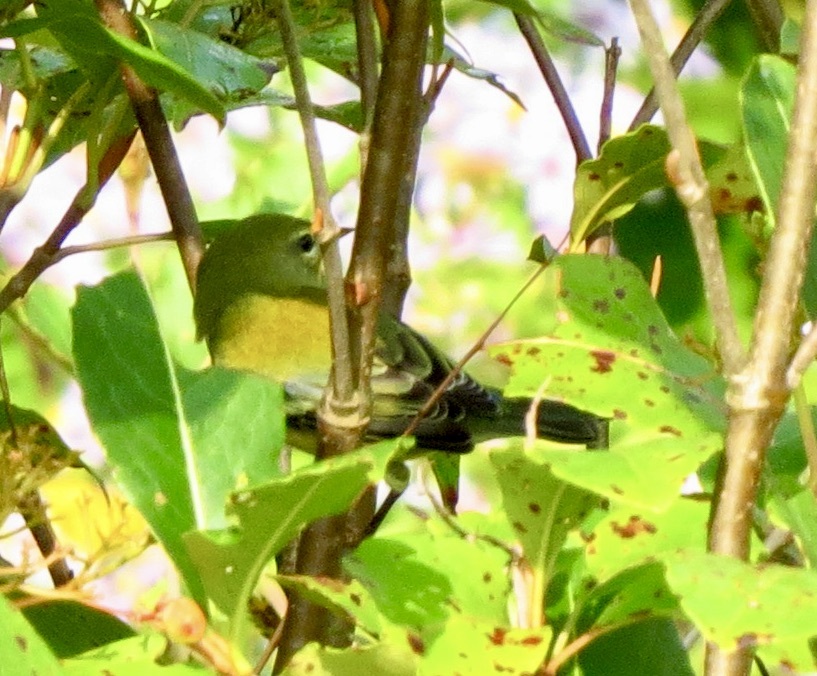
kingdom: Animalia
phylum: Chordata
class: Aves
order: Passeriformes
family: Parulidae
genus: Setophaga
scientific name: Setophaga americana
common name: Northern parula
